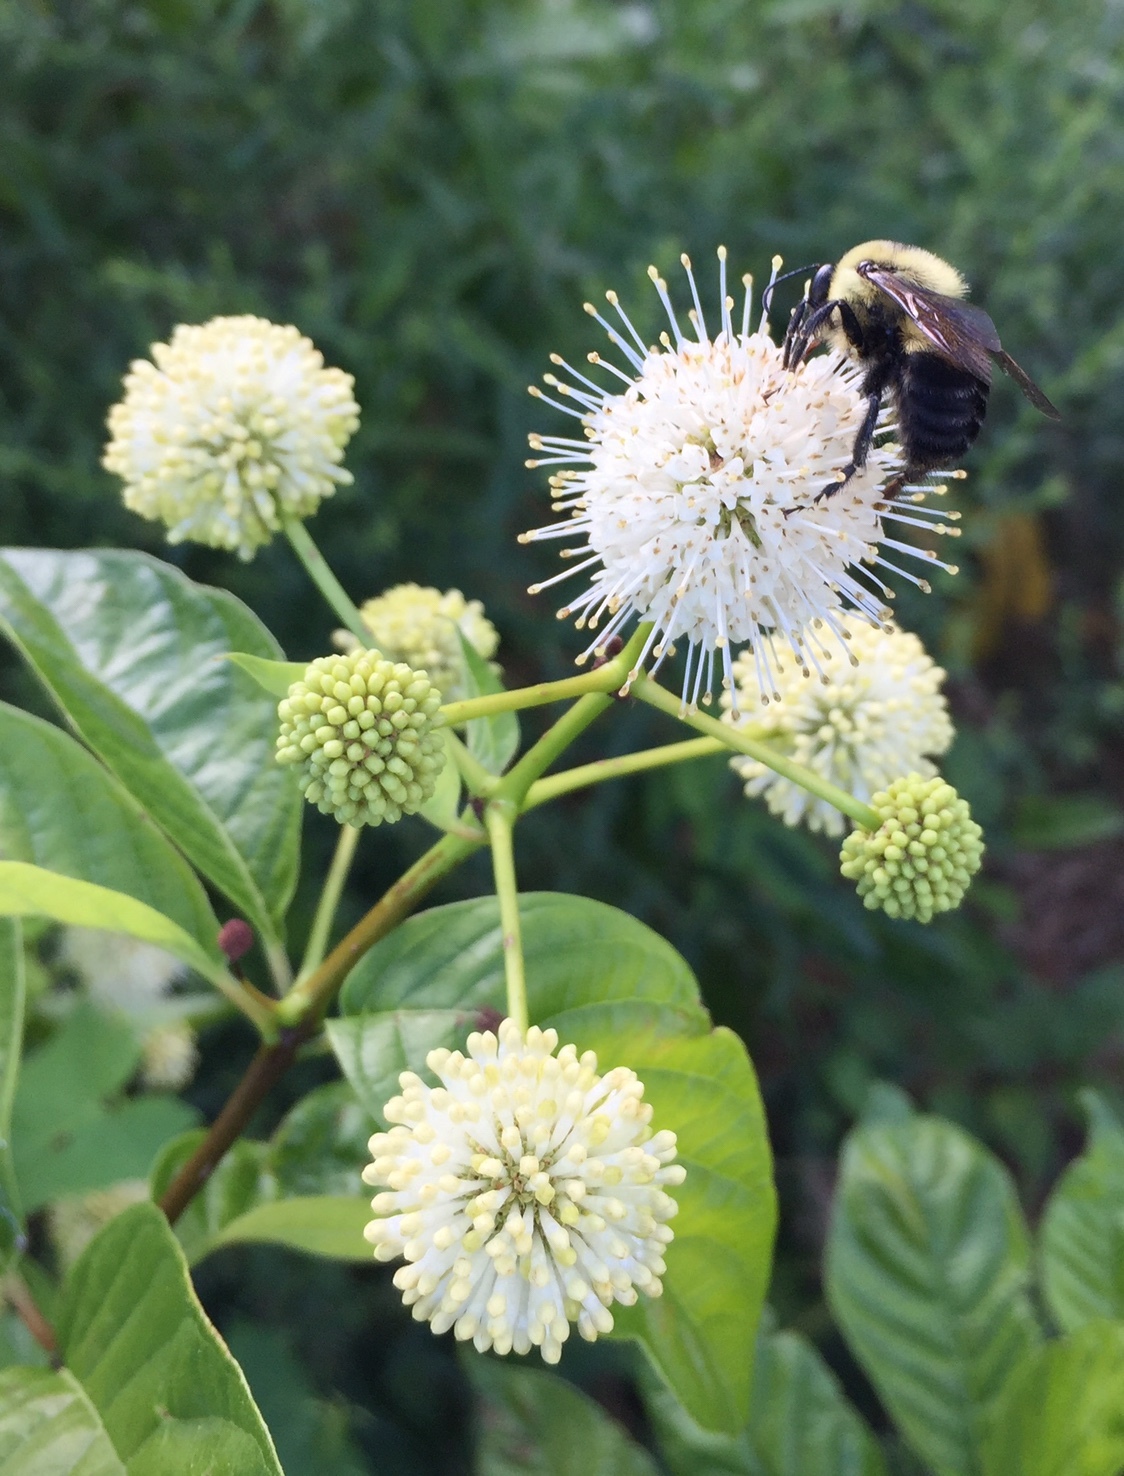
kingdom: Animalia
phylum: Arthropoda
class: Insecta
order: Hymenoptera
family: Apidae
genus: Bombus
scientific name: Bombus griseocollis
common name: Brown-belted bumble bee
